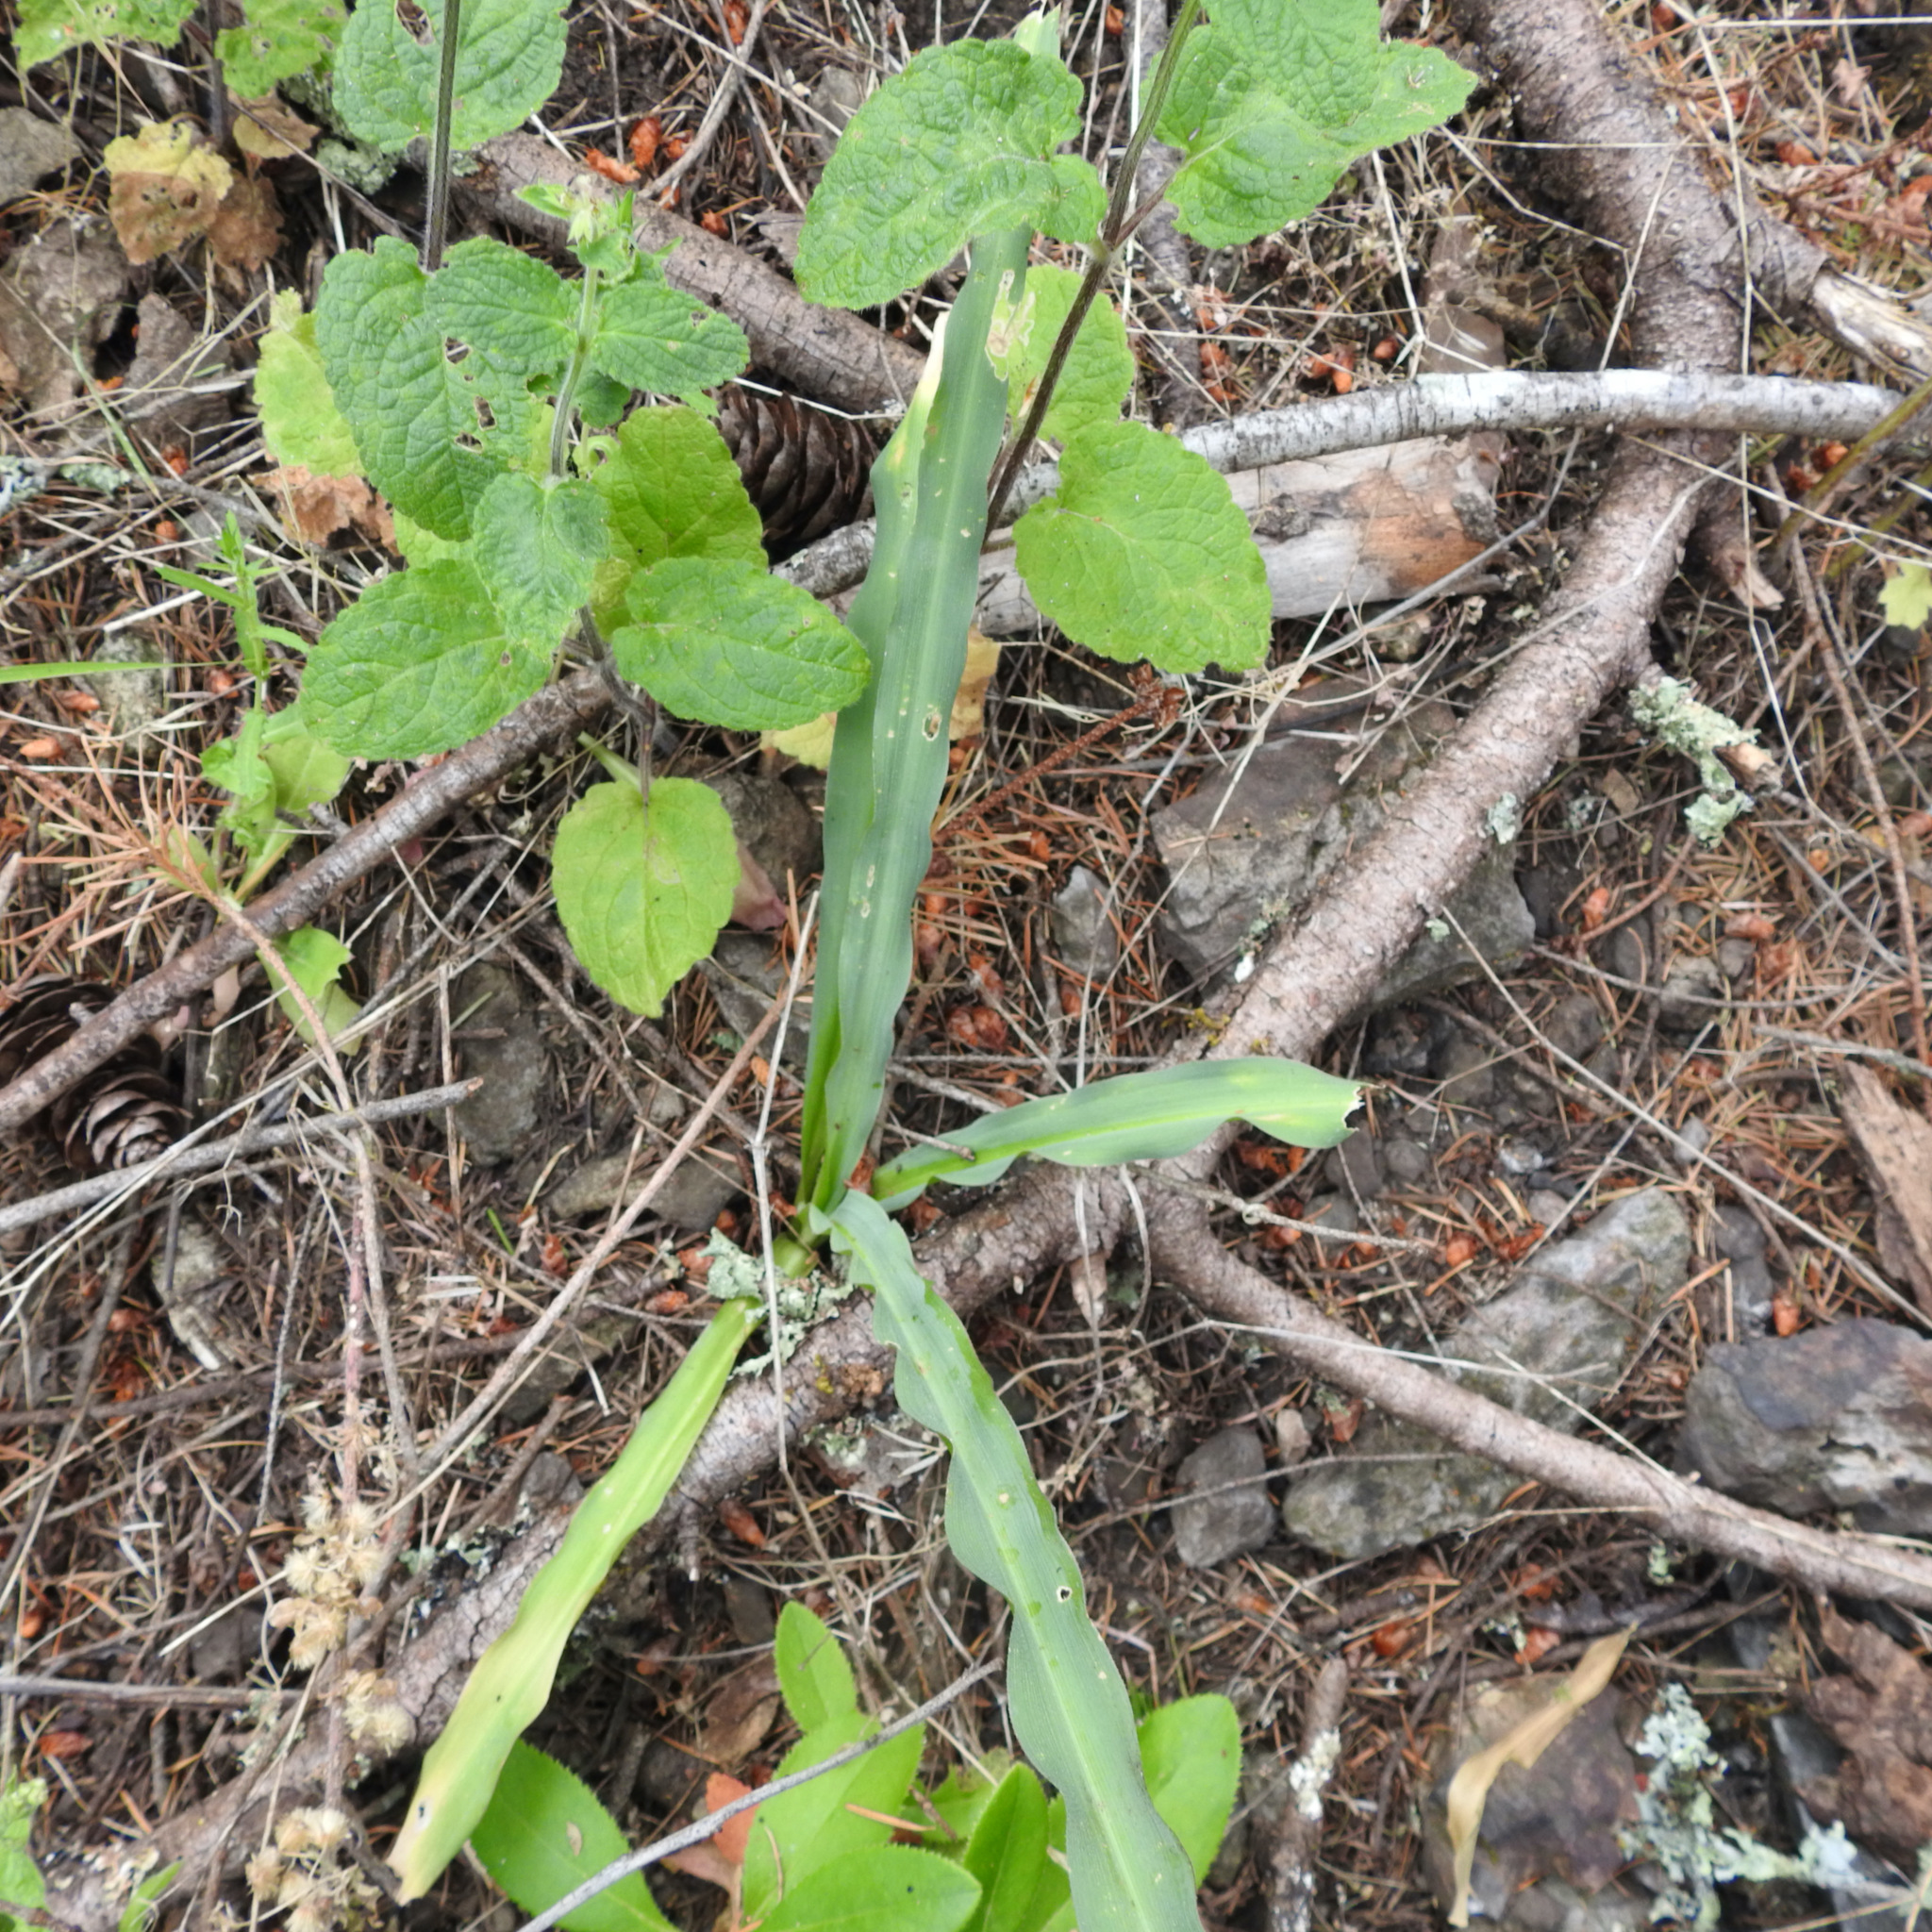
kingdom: Plantae
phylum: Tracheophyta
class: Liliopsida
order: Asparagales
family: Asparagaceae
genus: Chlorogalum
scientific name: Chlorogalum pomeridianum
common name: Amole
